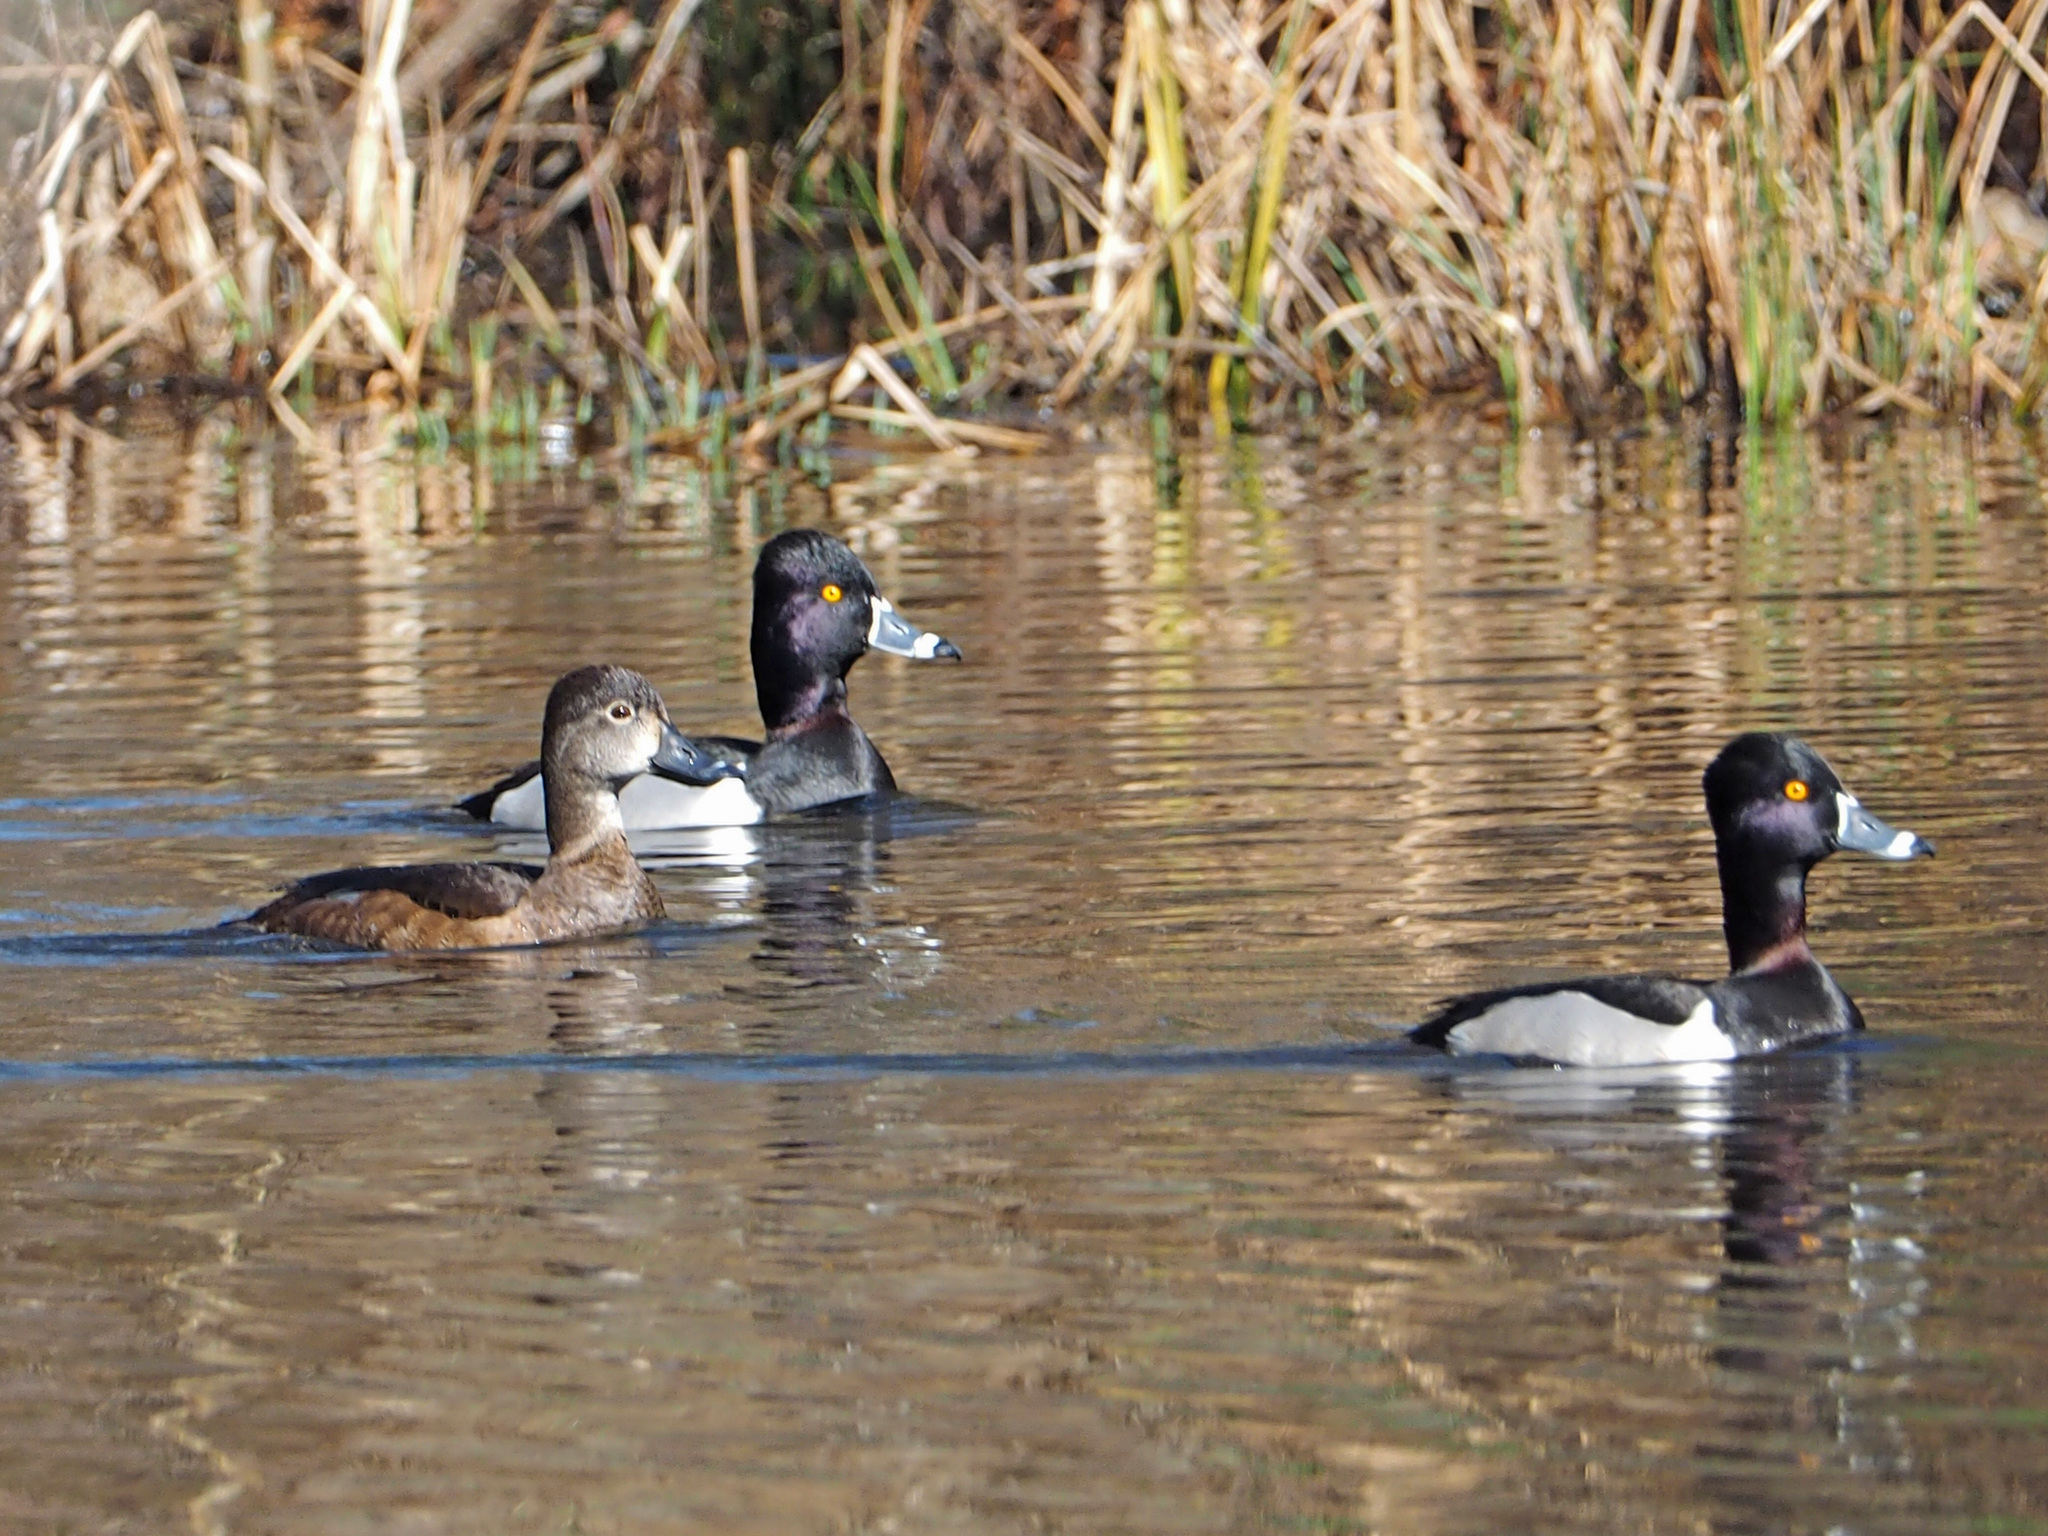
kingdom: Animalia
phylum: Chordata
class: Aves
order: Anseriformes
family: Anatidae
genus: Aythya
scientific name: Aythya collaris
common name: Ring-necked duck
